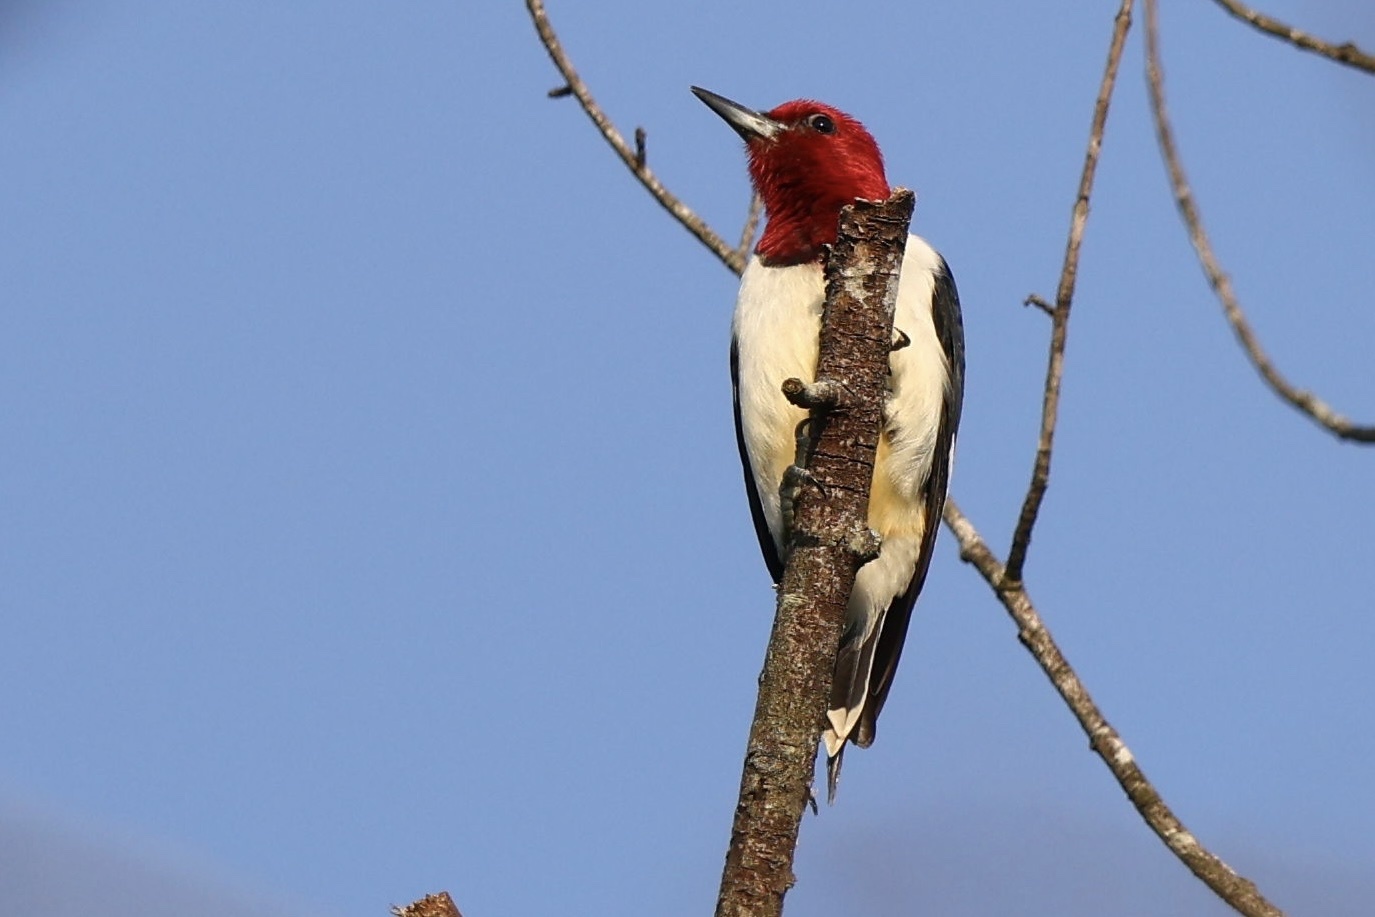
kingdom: Animalia
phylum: Chordata
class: Aves
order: Piciformes
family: Picidae
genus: Melanerpes
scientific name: Melanerpes erythrocephalus
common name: Red-headed woodpecker
